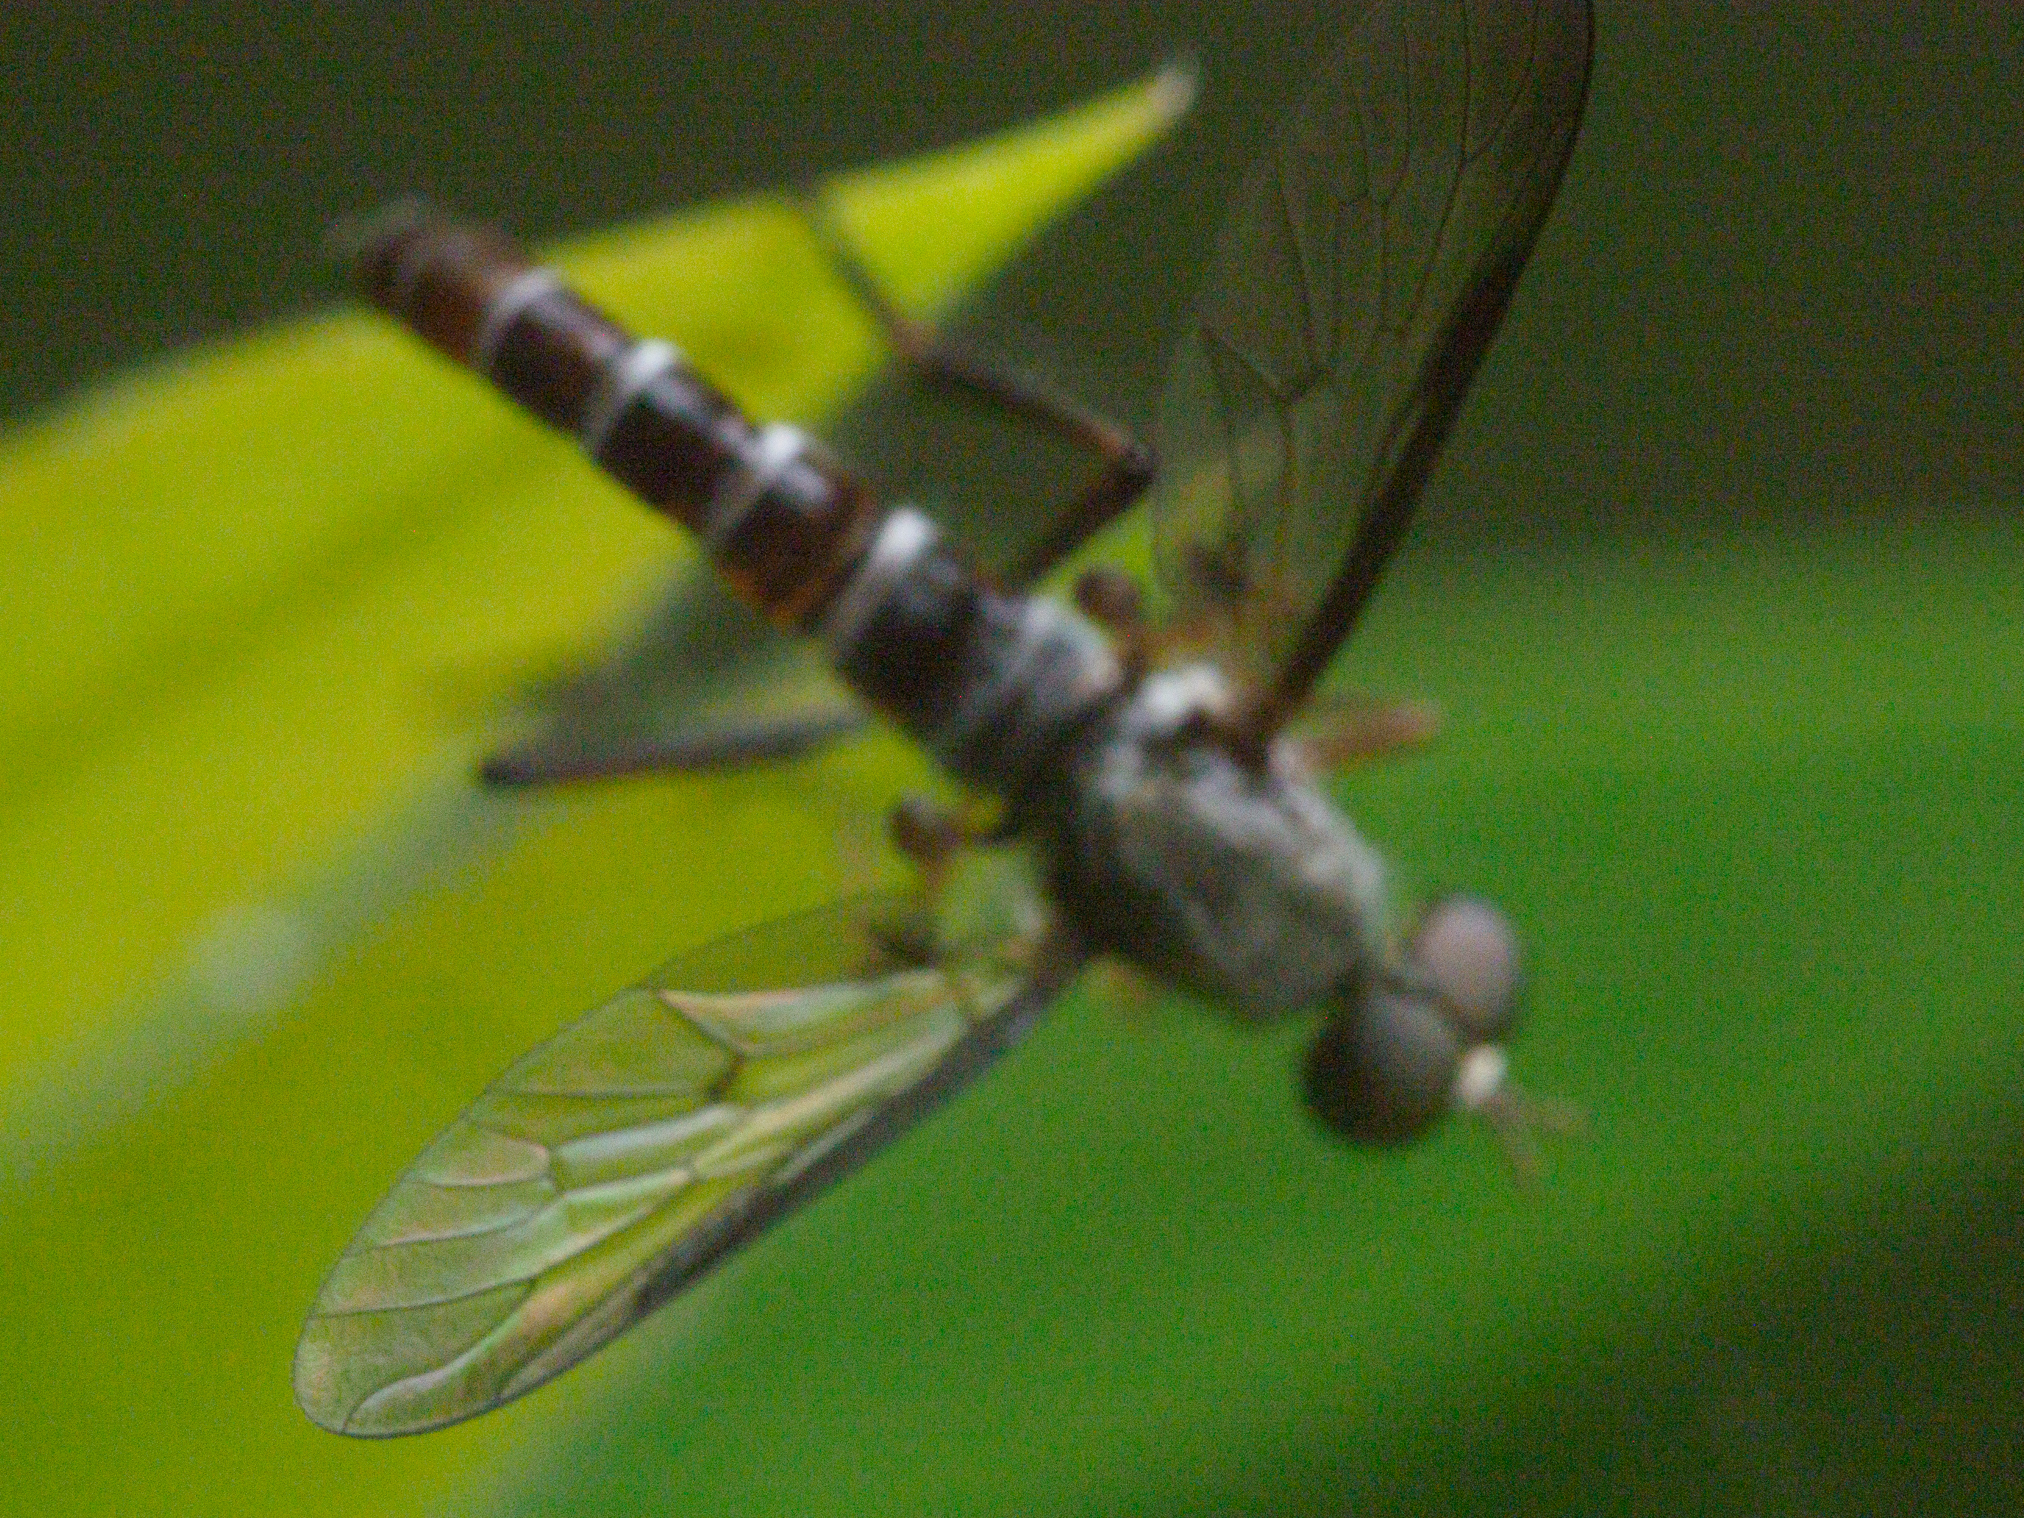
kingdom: Animalia
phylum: Arthropoda
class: Insecta
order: Diptera
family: Therevidae
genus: Taenogerella
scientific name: Taenogerella elizabethae
